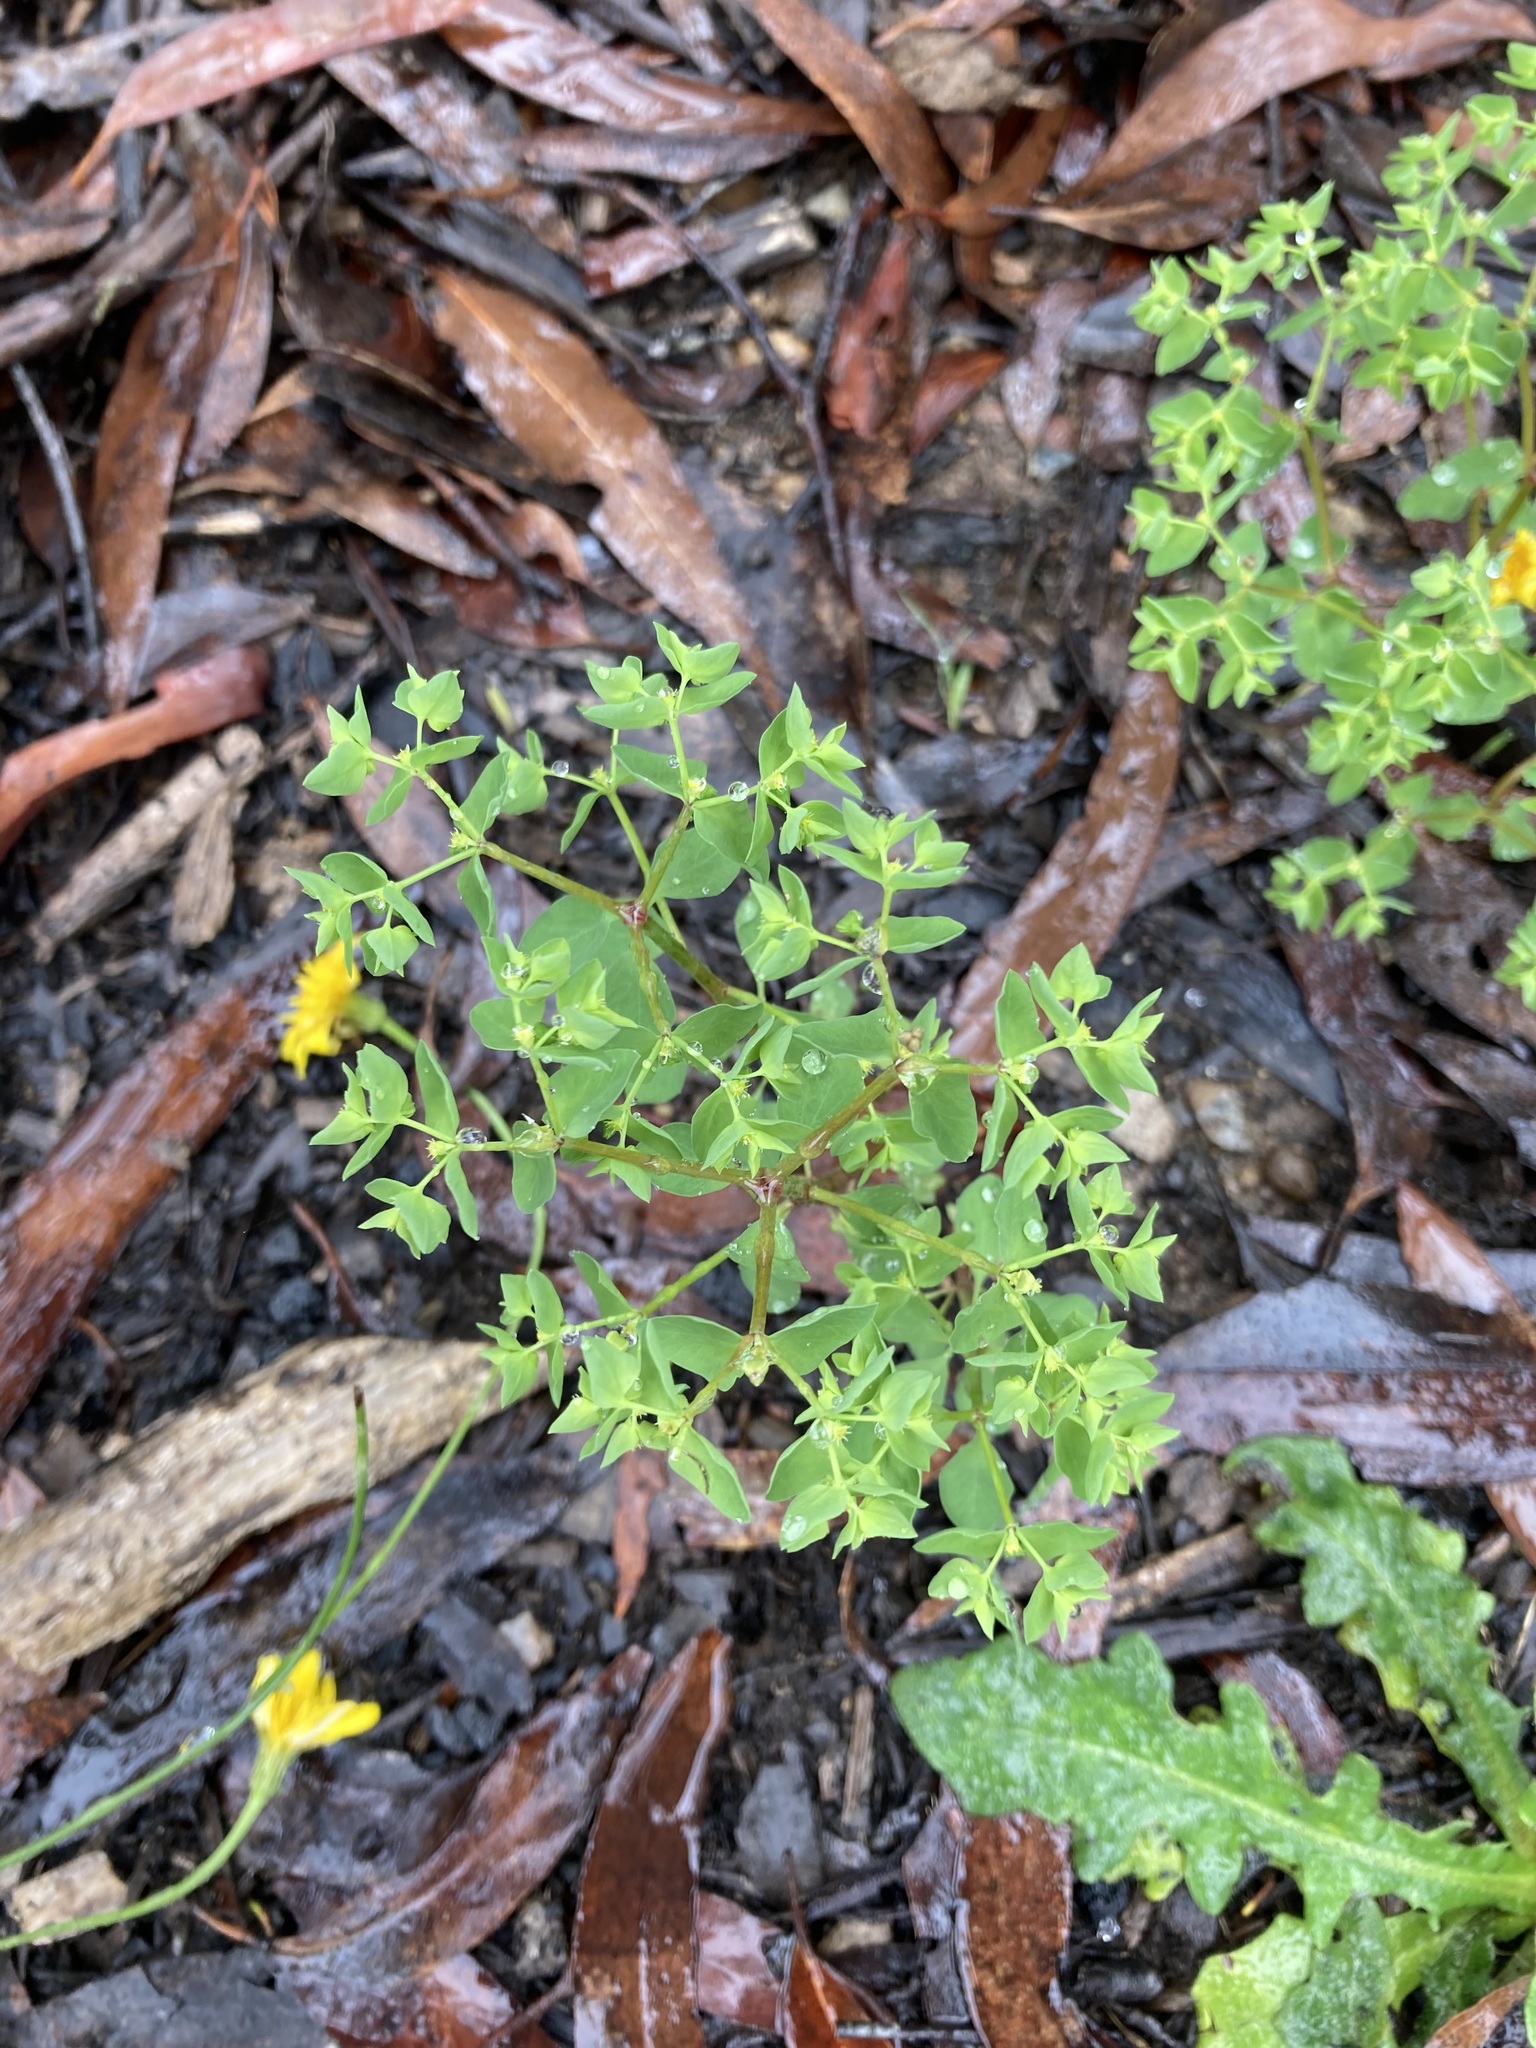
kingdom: Plantae
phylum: Tracheophyta
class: Magnoliopsida
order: Malpighiales
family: Euphorbiaceae
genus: Euphorbia
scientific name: Euphorbia peplus
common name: Petty spurge
